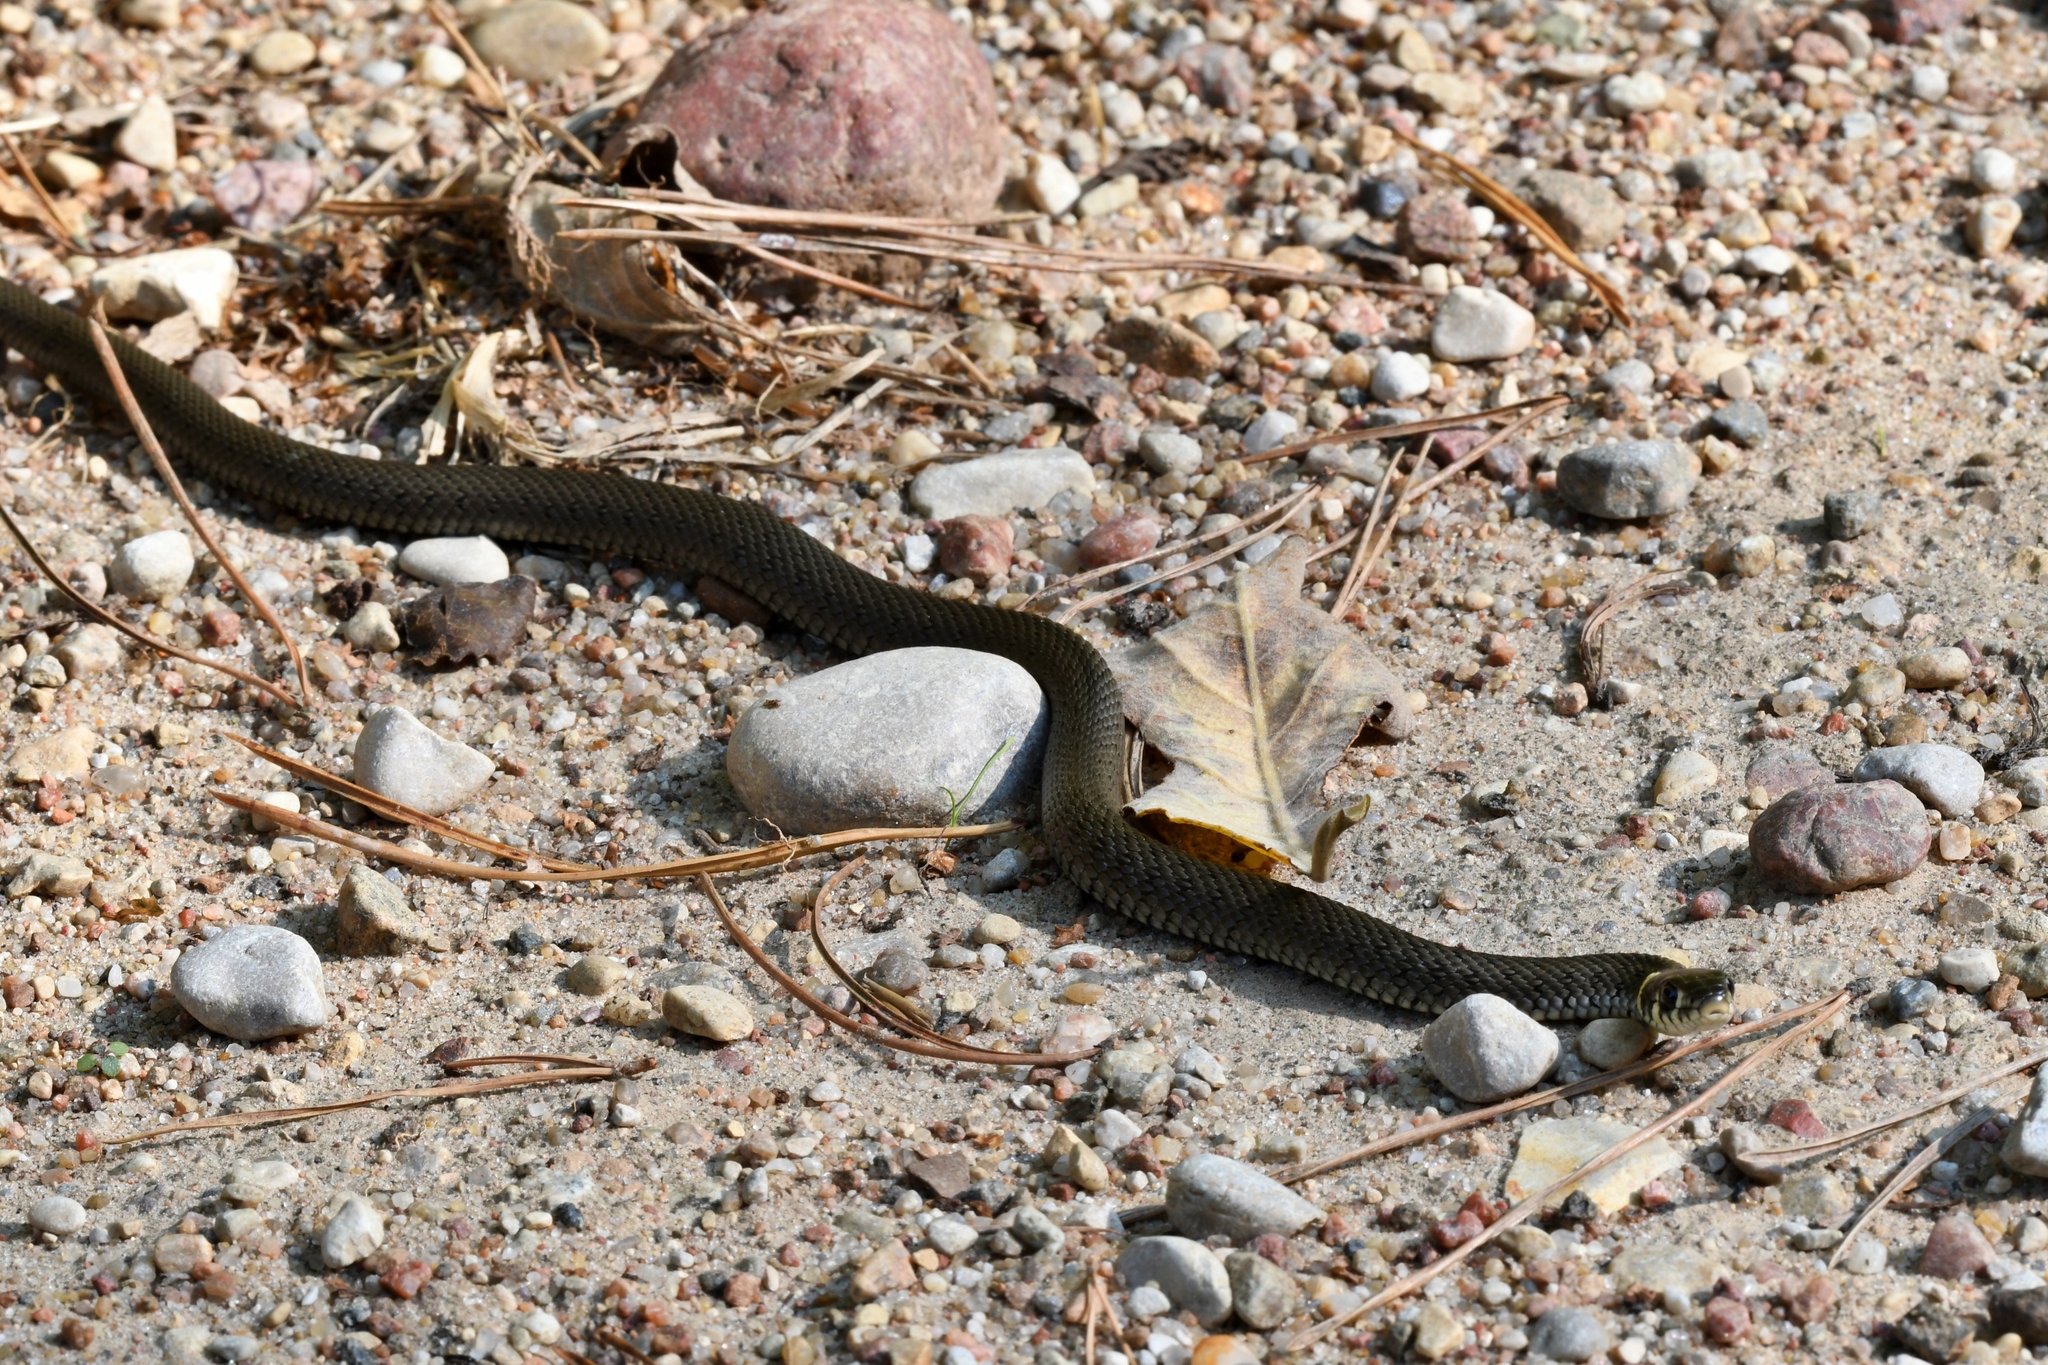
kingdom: Animalia
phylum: Chordata
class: Squamata
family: Colubridae
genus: Natrix
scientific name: Natrix natrix
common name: Grass snake
